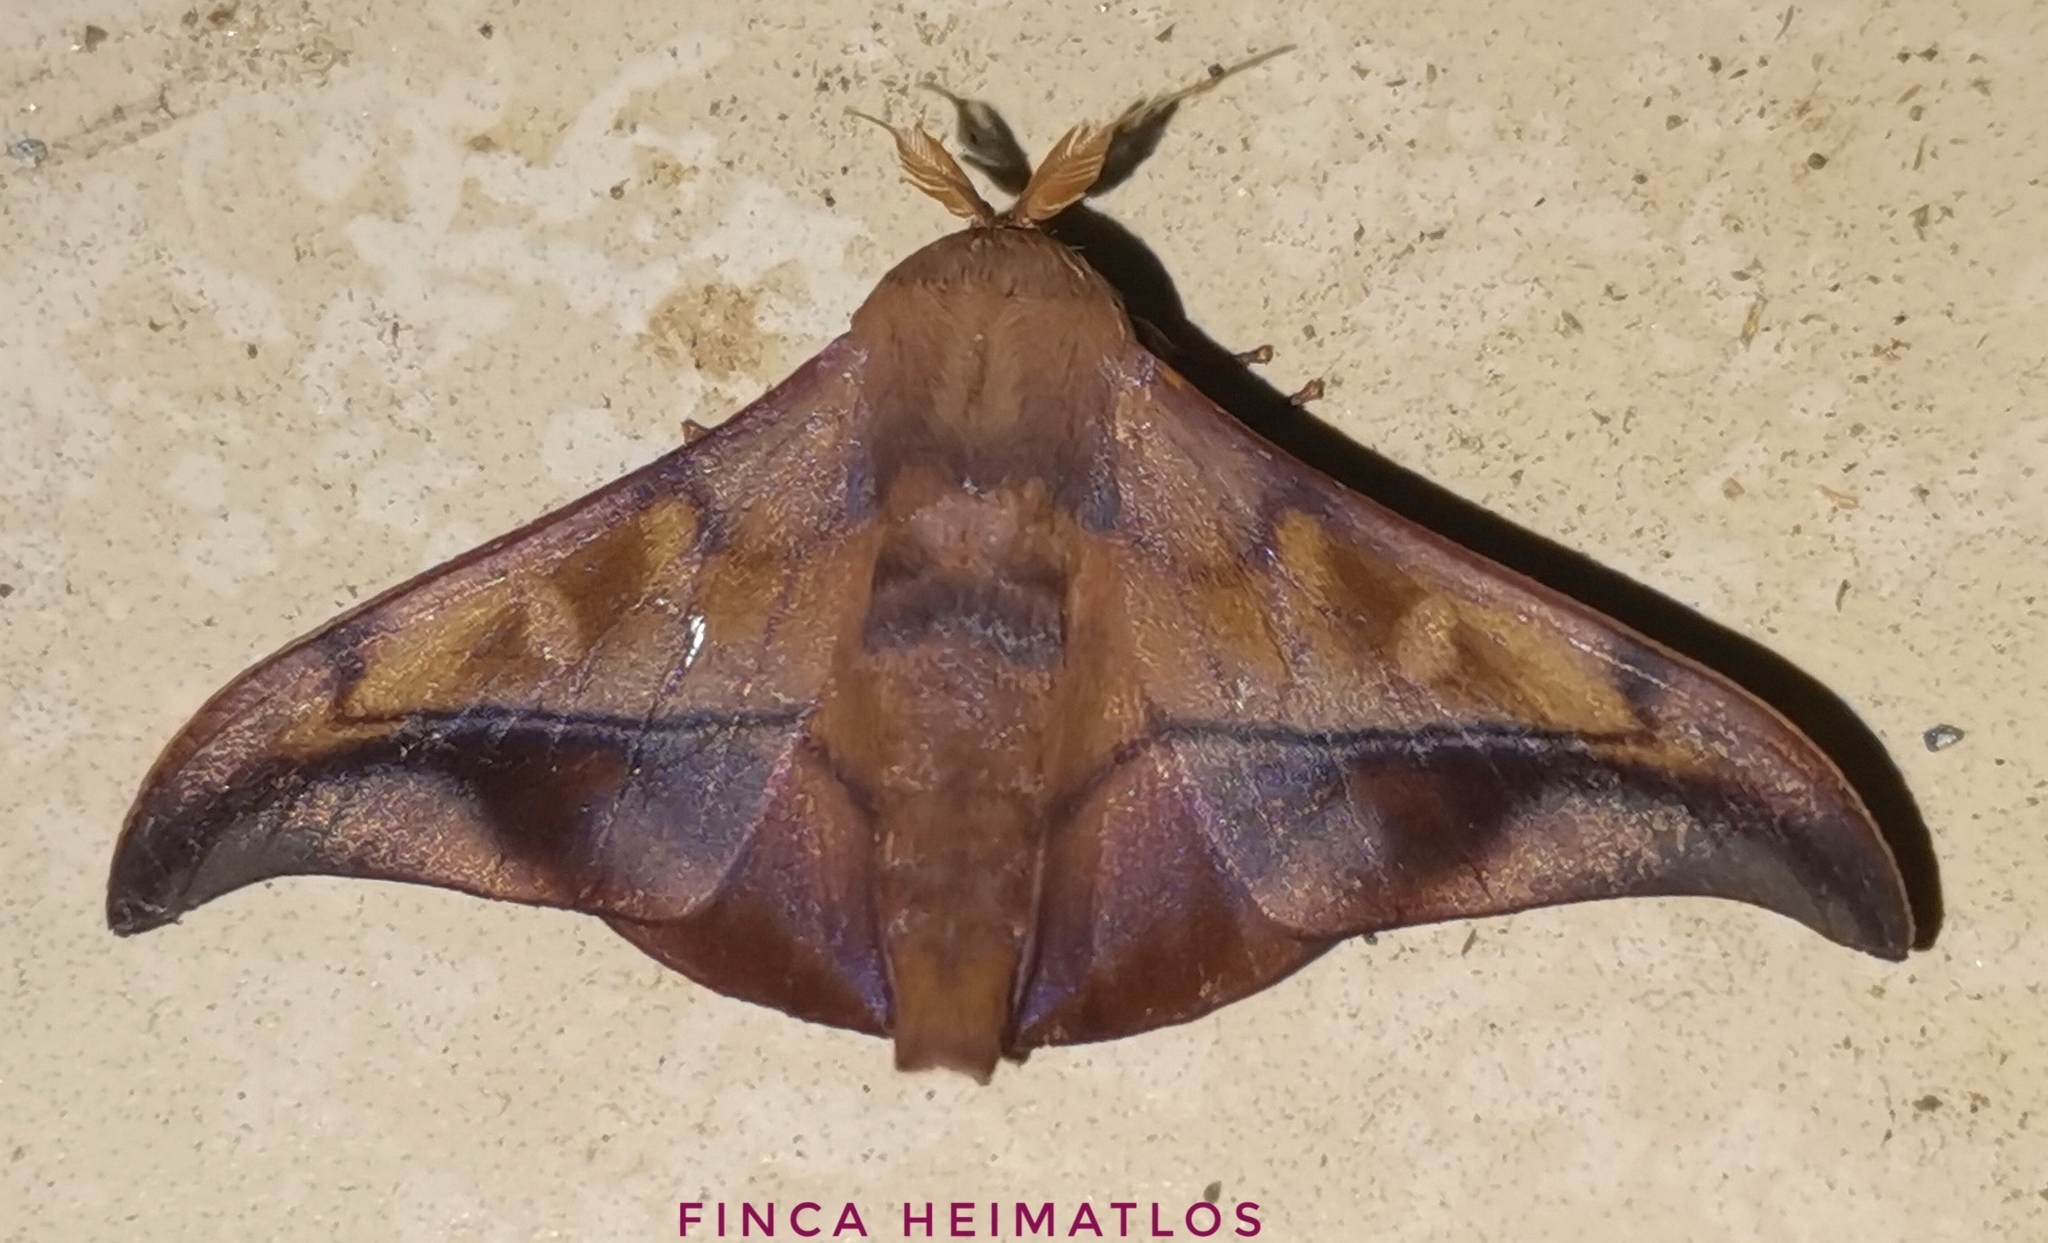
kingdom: Animalia
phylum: Arthropoda
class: Insecta
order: Lepidoptera
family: Mimallonidae
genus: Cicinnus
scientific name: Cicinnus anysia
